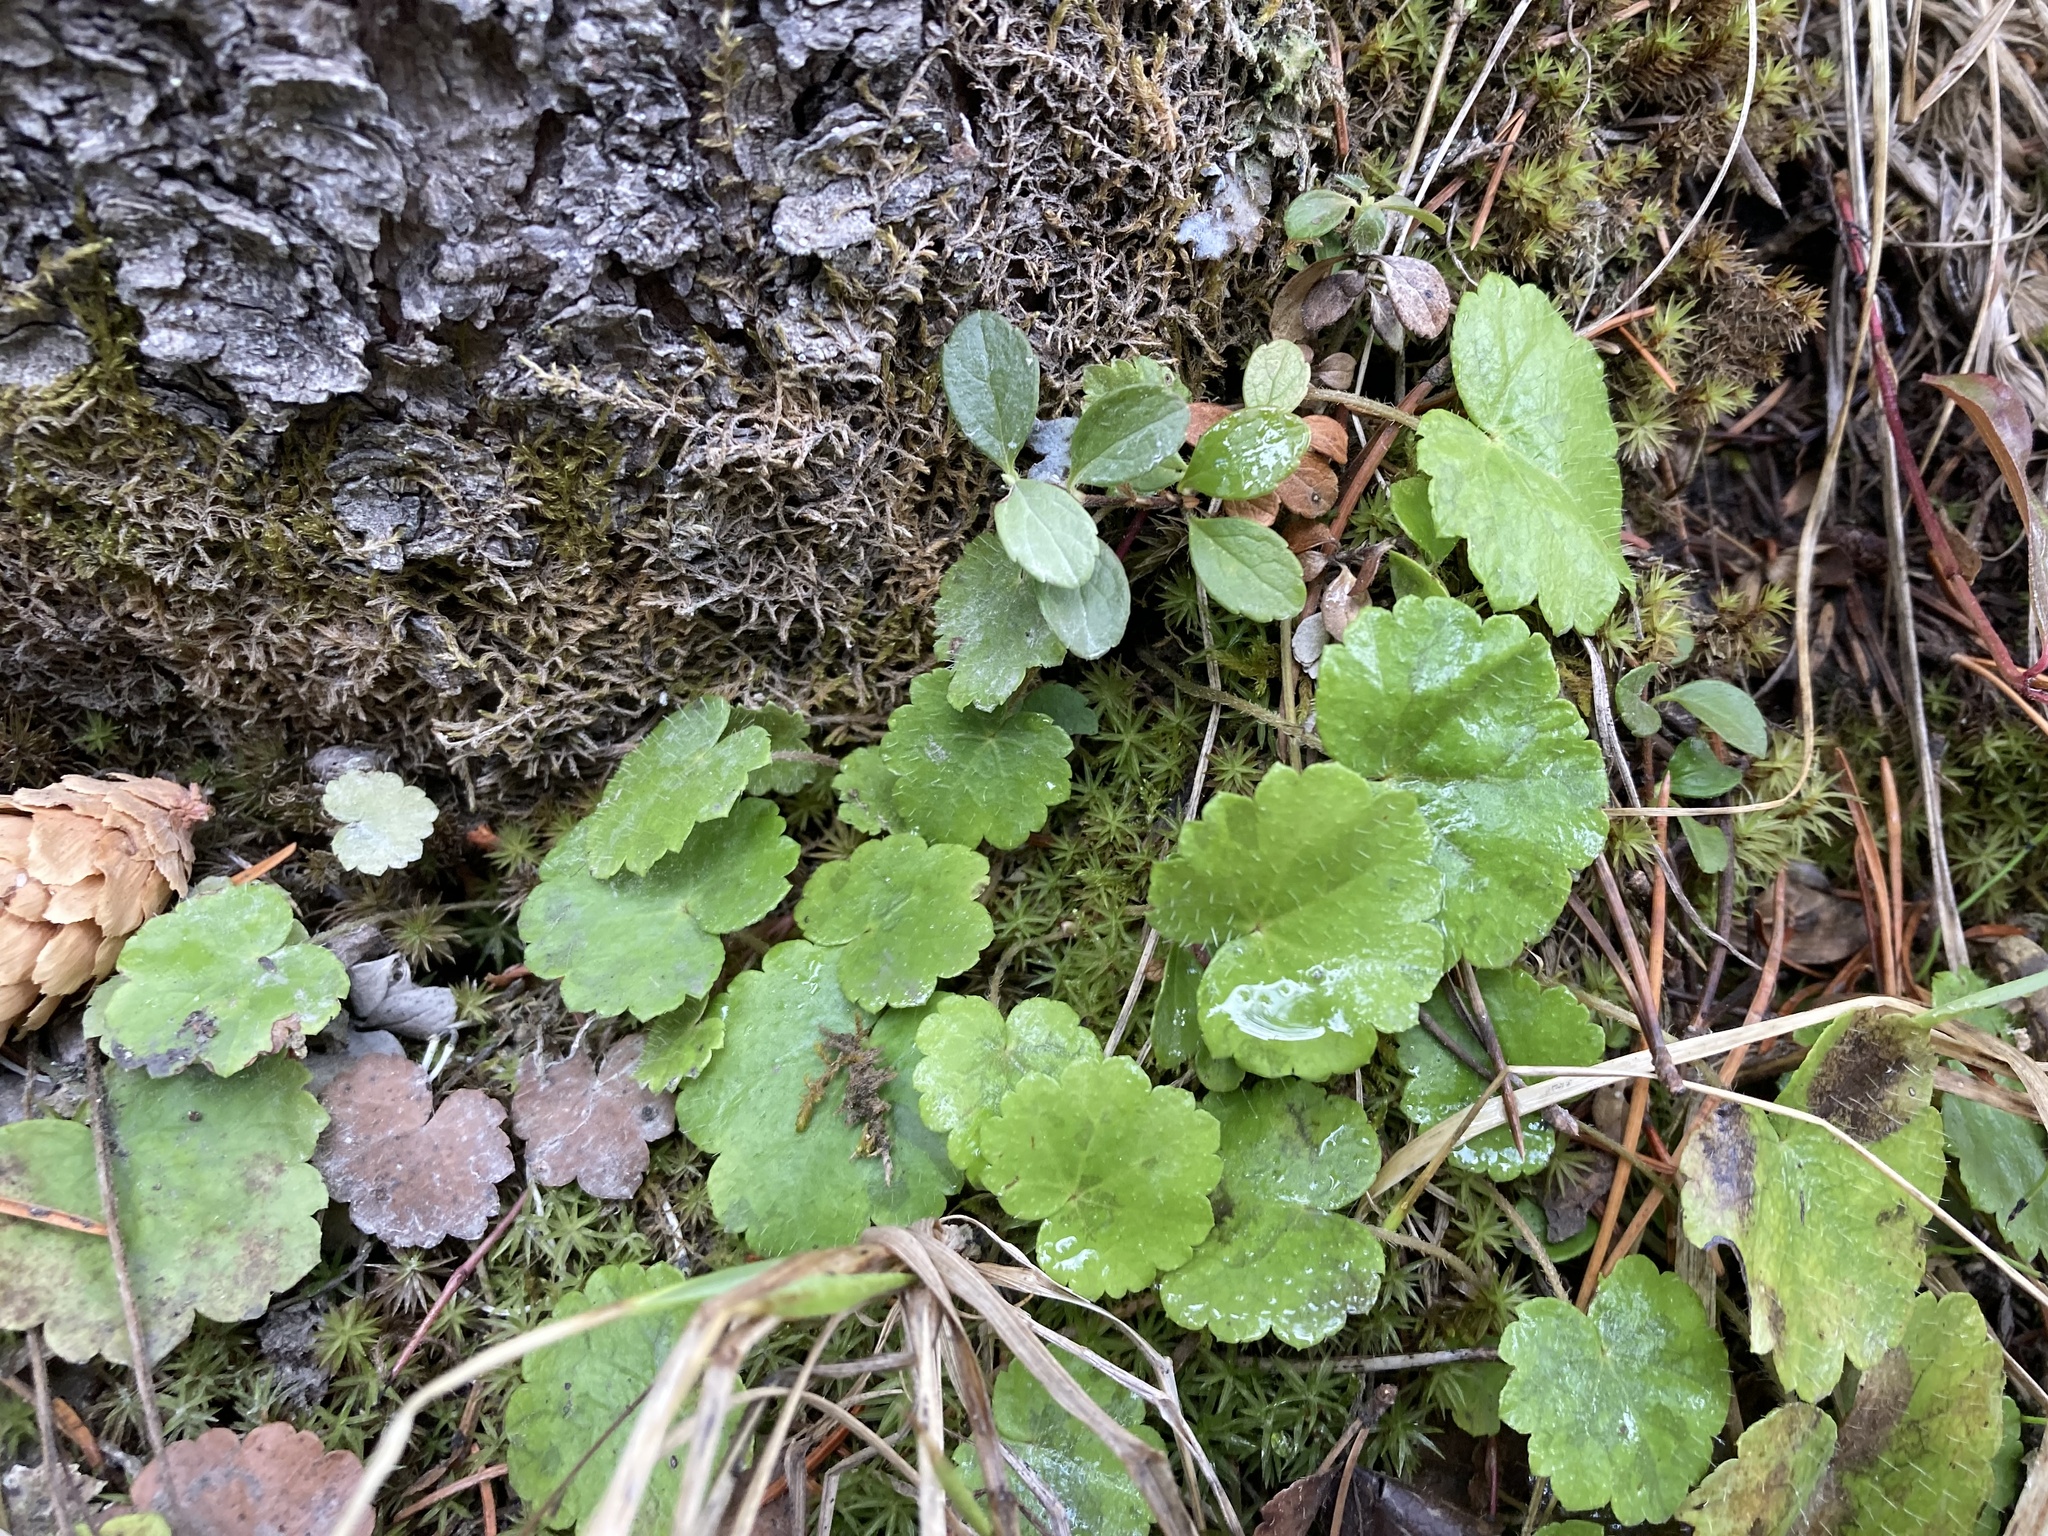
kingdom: Plantae
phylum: Tracheophyta
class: Magnoliopsida
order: Saxifragales
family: Saxifragaceae
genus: Mitella
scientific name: Mitella nuda
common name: Bare-stemmed bishop's-cap
